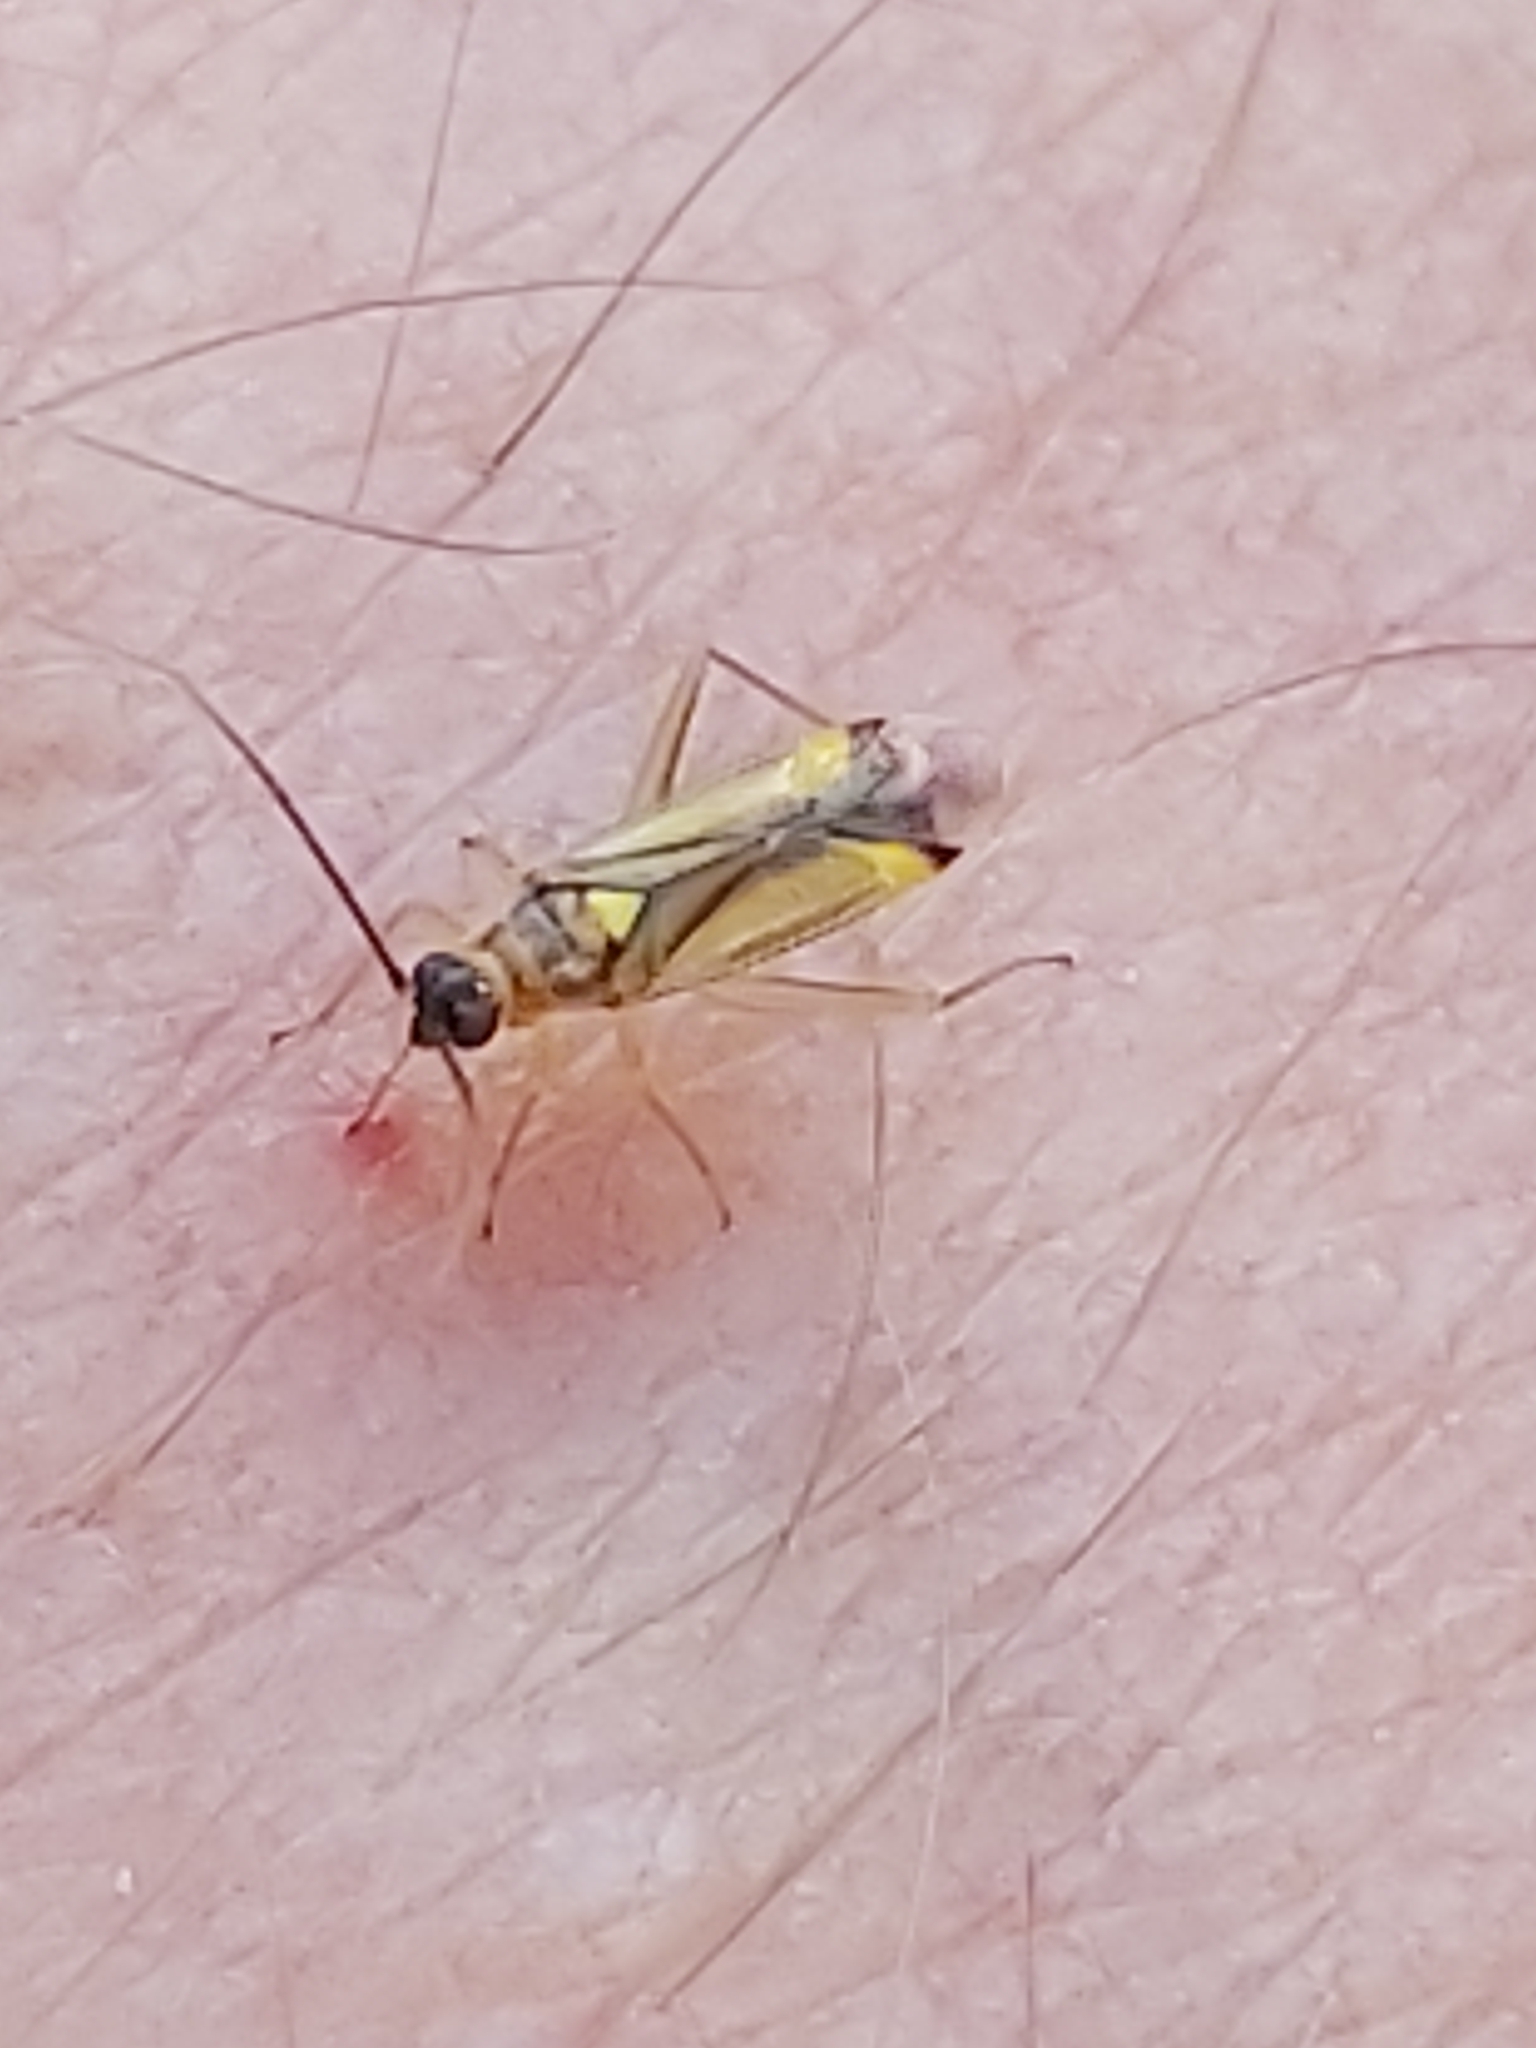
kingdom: Animalia
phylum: Arthropoda
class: Insecta
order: Hemiptera
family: Miridae
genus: Campyloneura
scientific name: Campyloneura virgula
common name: Predatory bug
